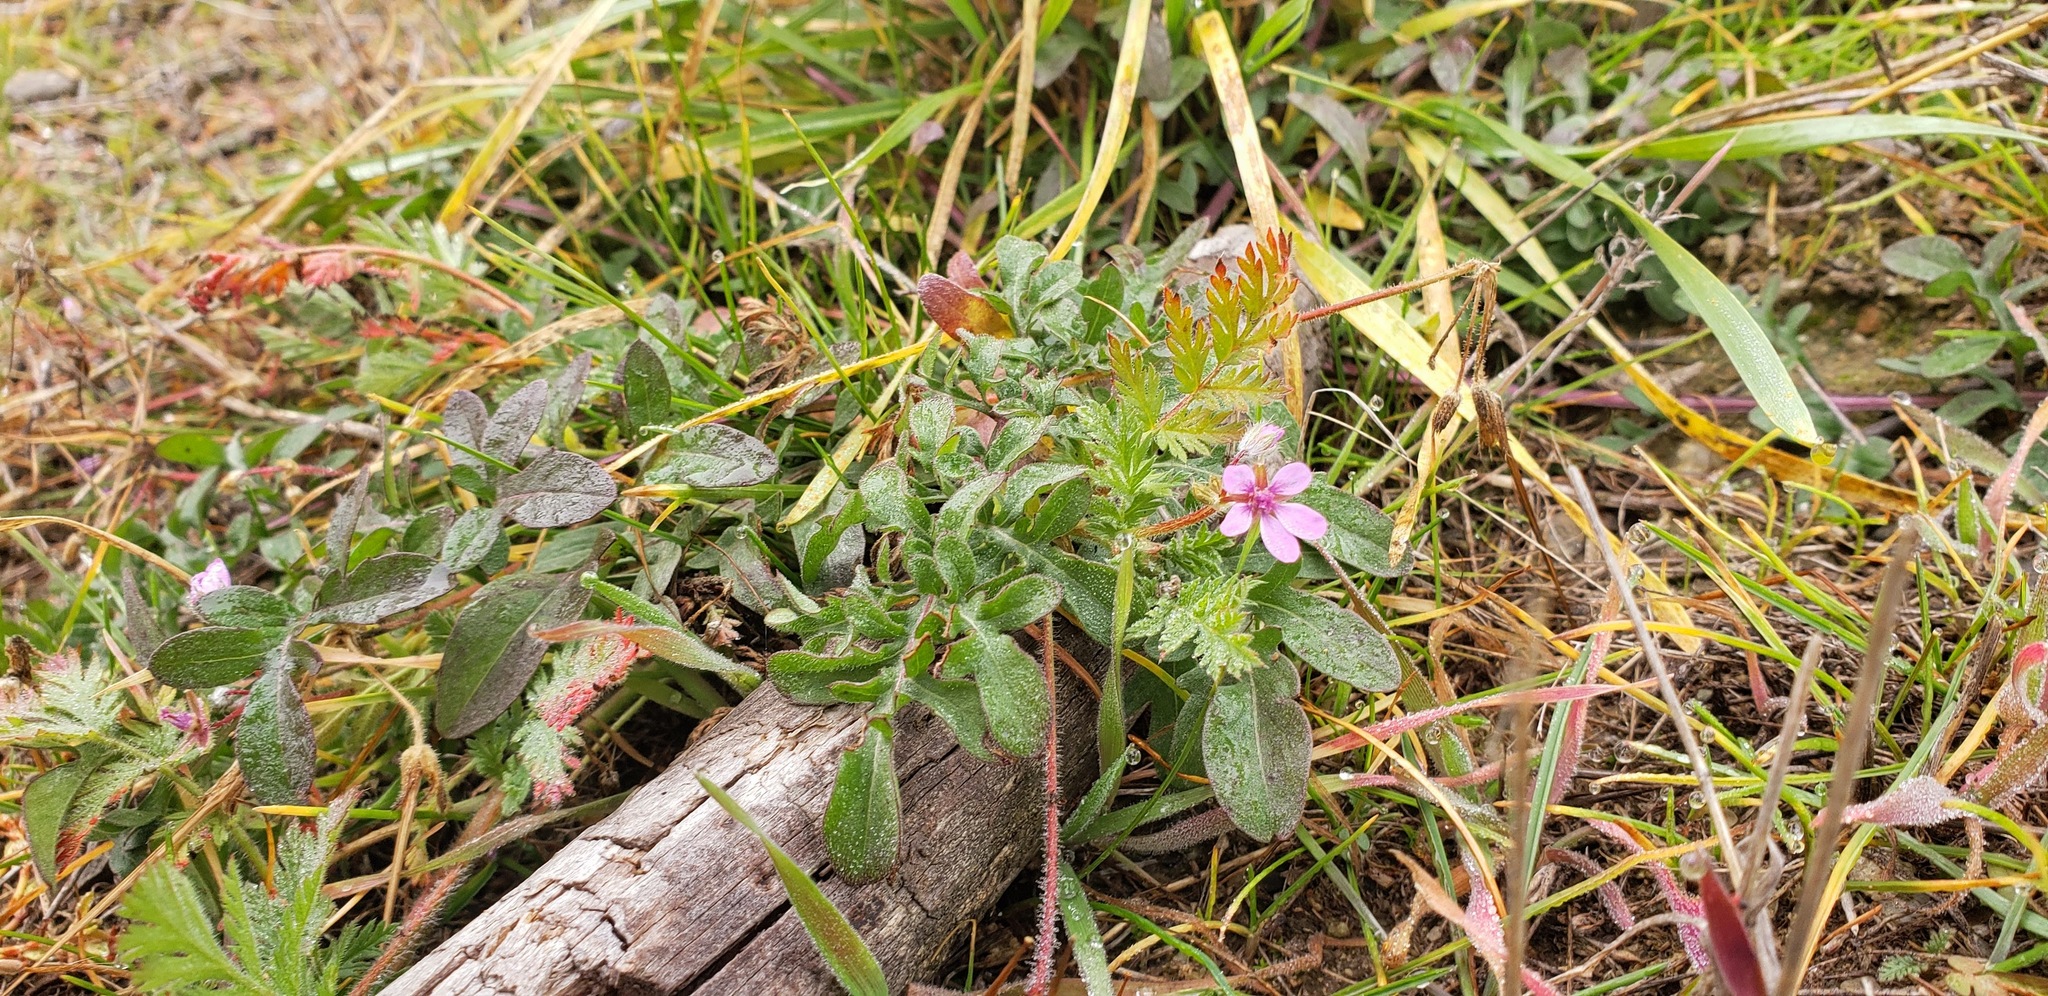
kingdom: Plantae
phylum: Tracheophyta
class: Magnoliopsida
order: Geraniales
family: Geraniaceae
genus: Erodium
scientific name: Erodium cicutarium
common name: Common stork's-bill
